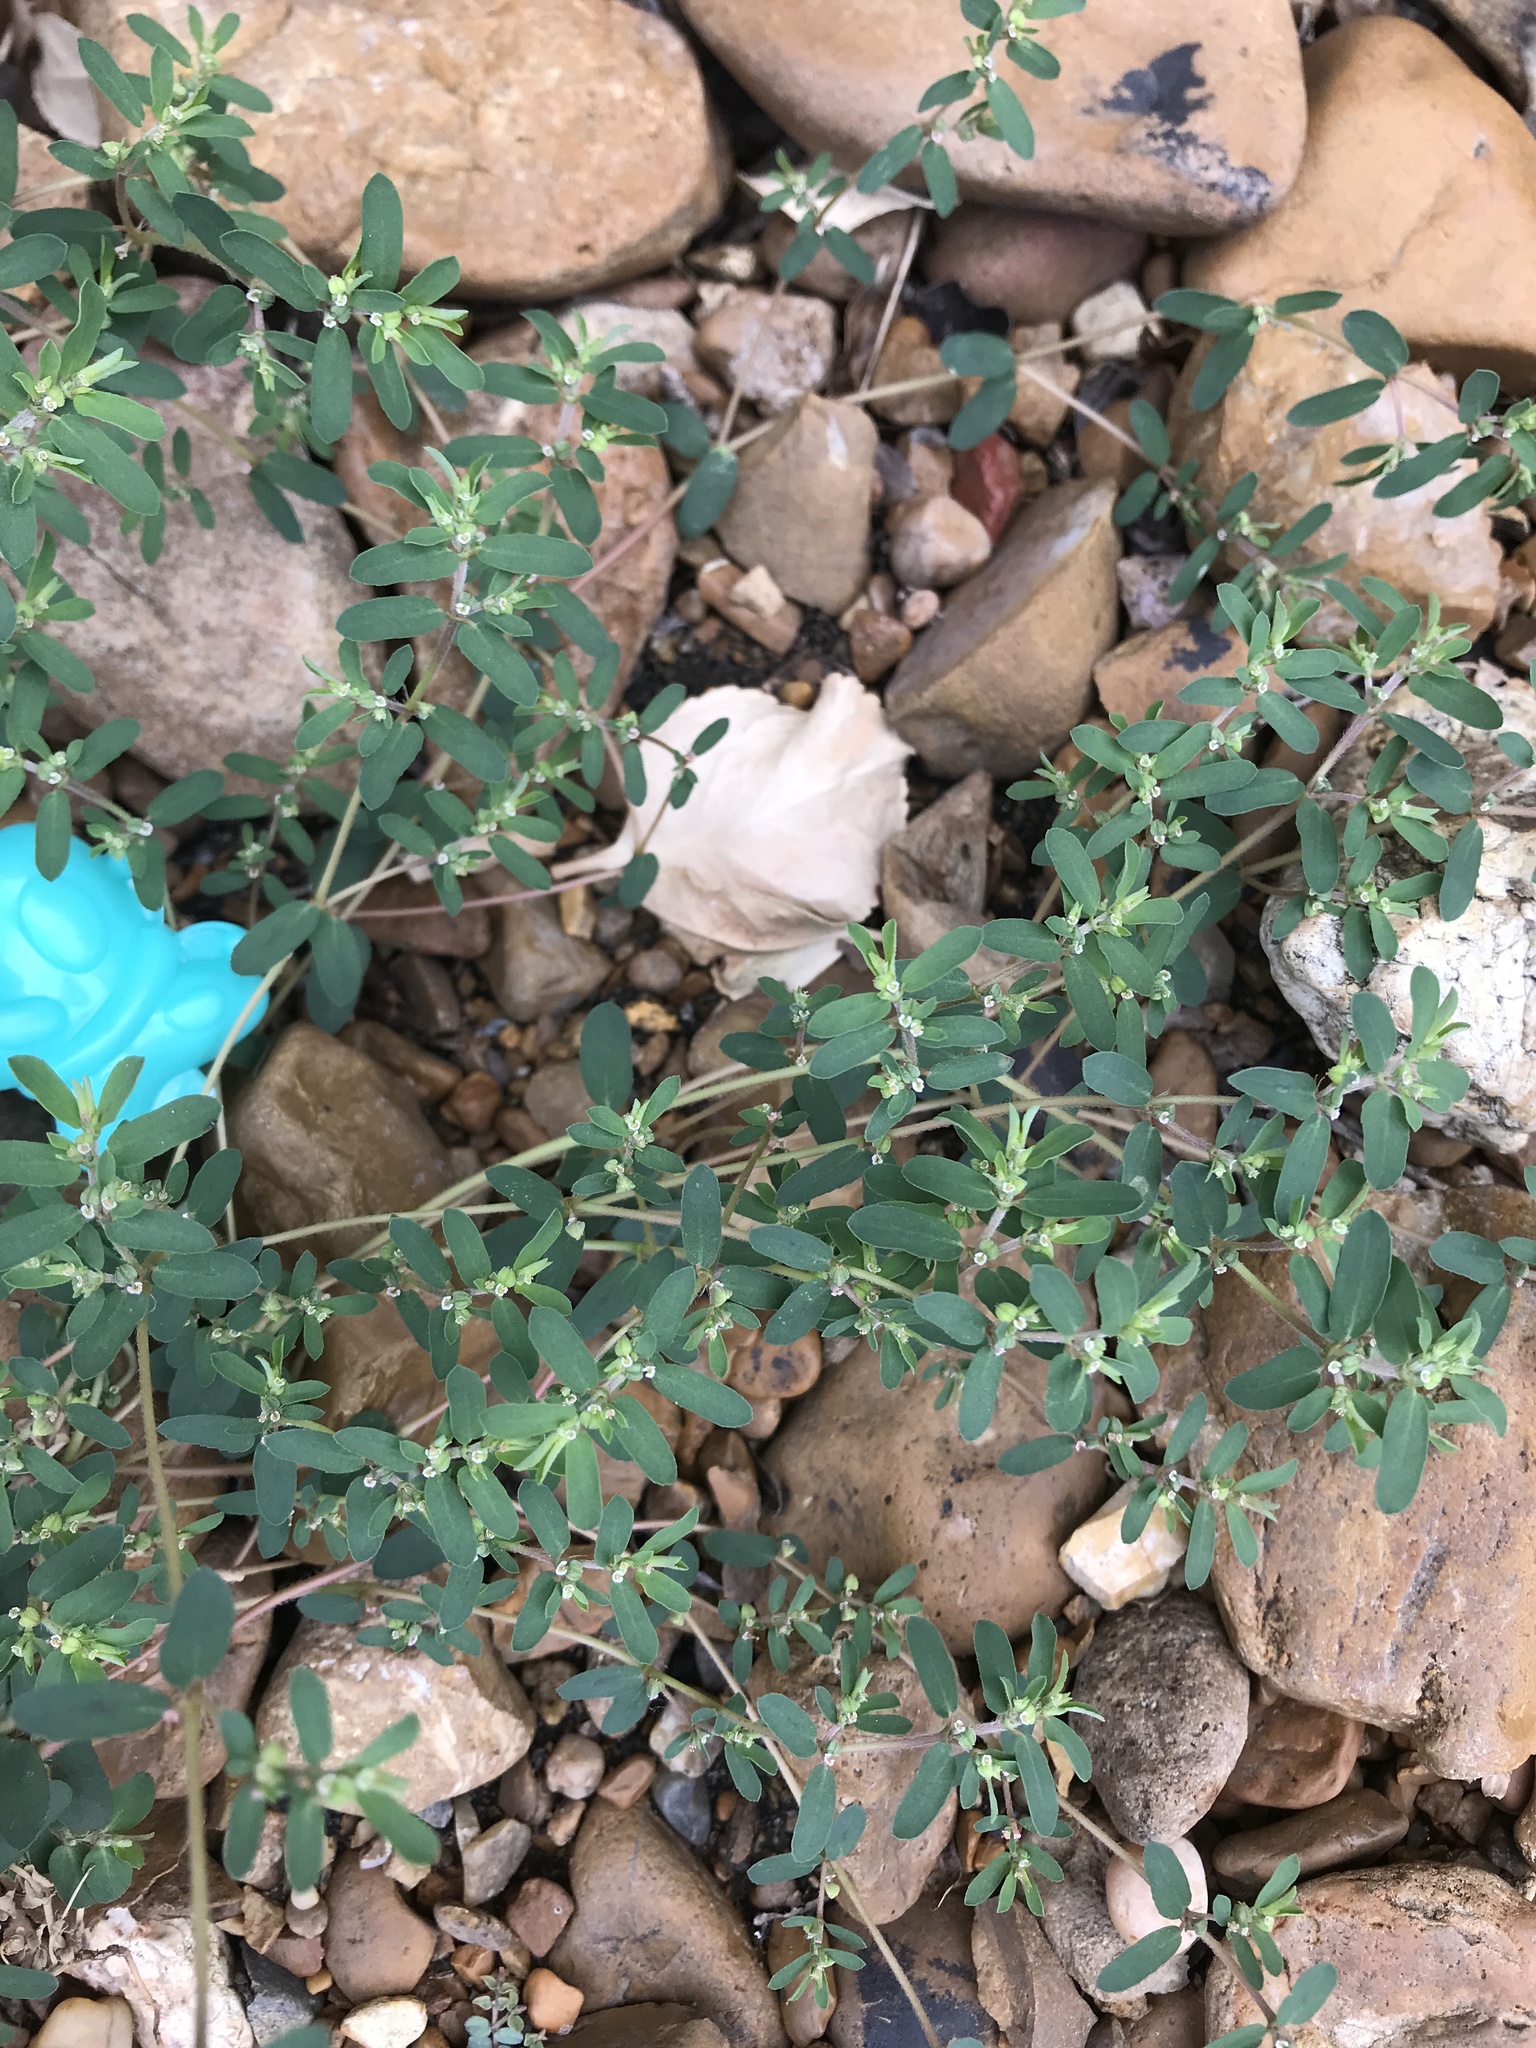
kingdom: Plantae
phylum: Tracheophyta
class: Magnoliopsida
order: Malpighiales
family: Euphorbiaceae
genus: Euphorbia
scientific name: Euphorbia maculata
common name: Spotted spurge
